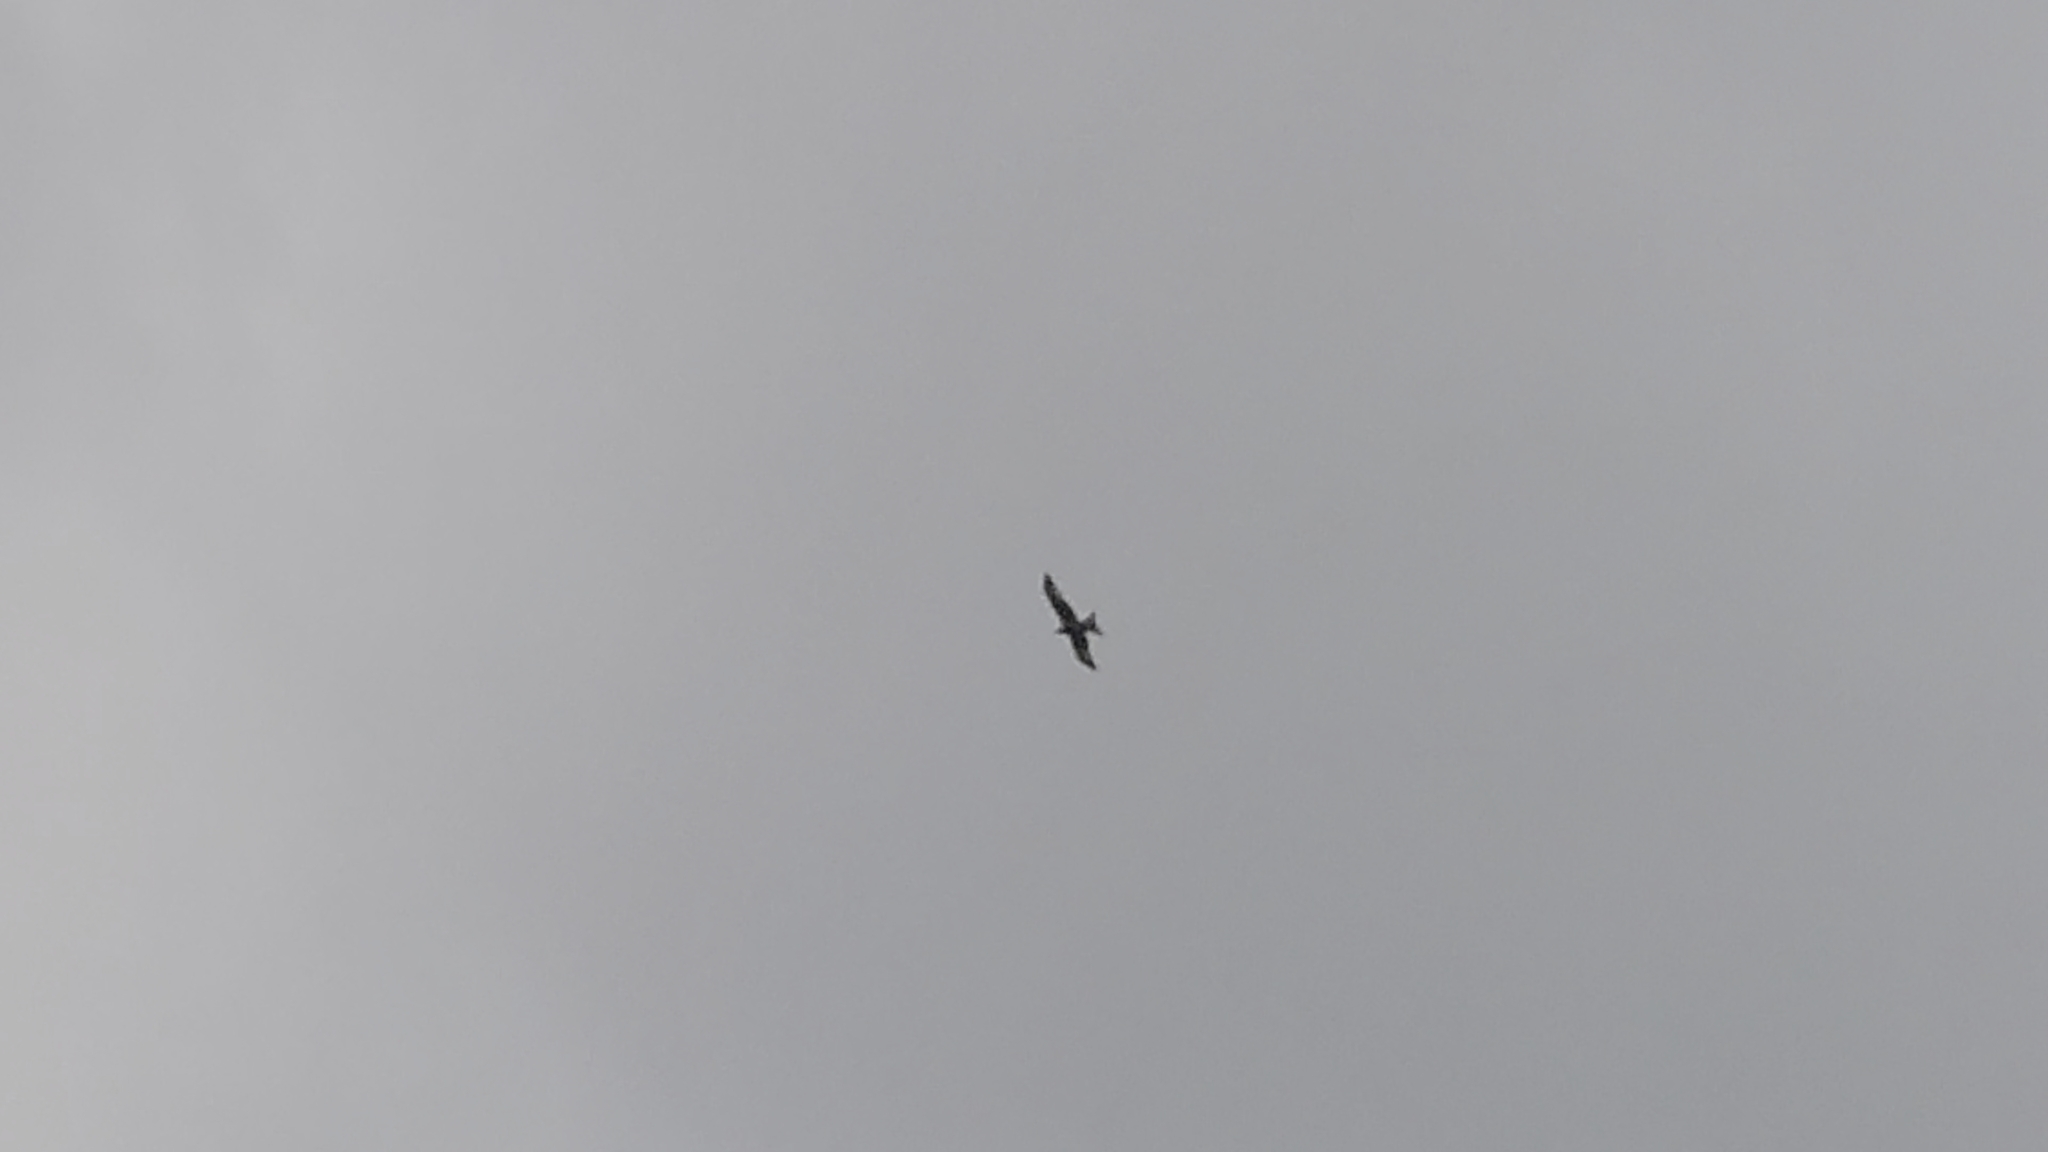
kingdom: Animalia
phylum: Chordata
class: Aves
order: Accipitriformes
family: Accipitridae
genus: Milvus
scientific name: Milvus milvus
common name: Red kite
